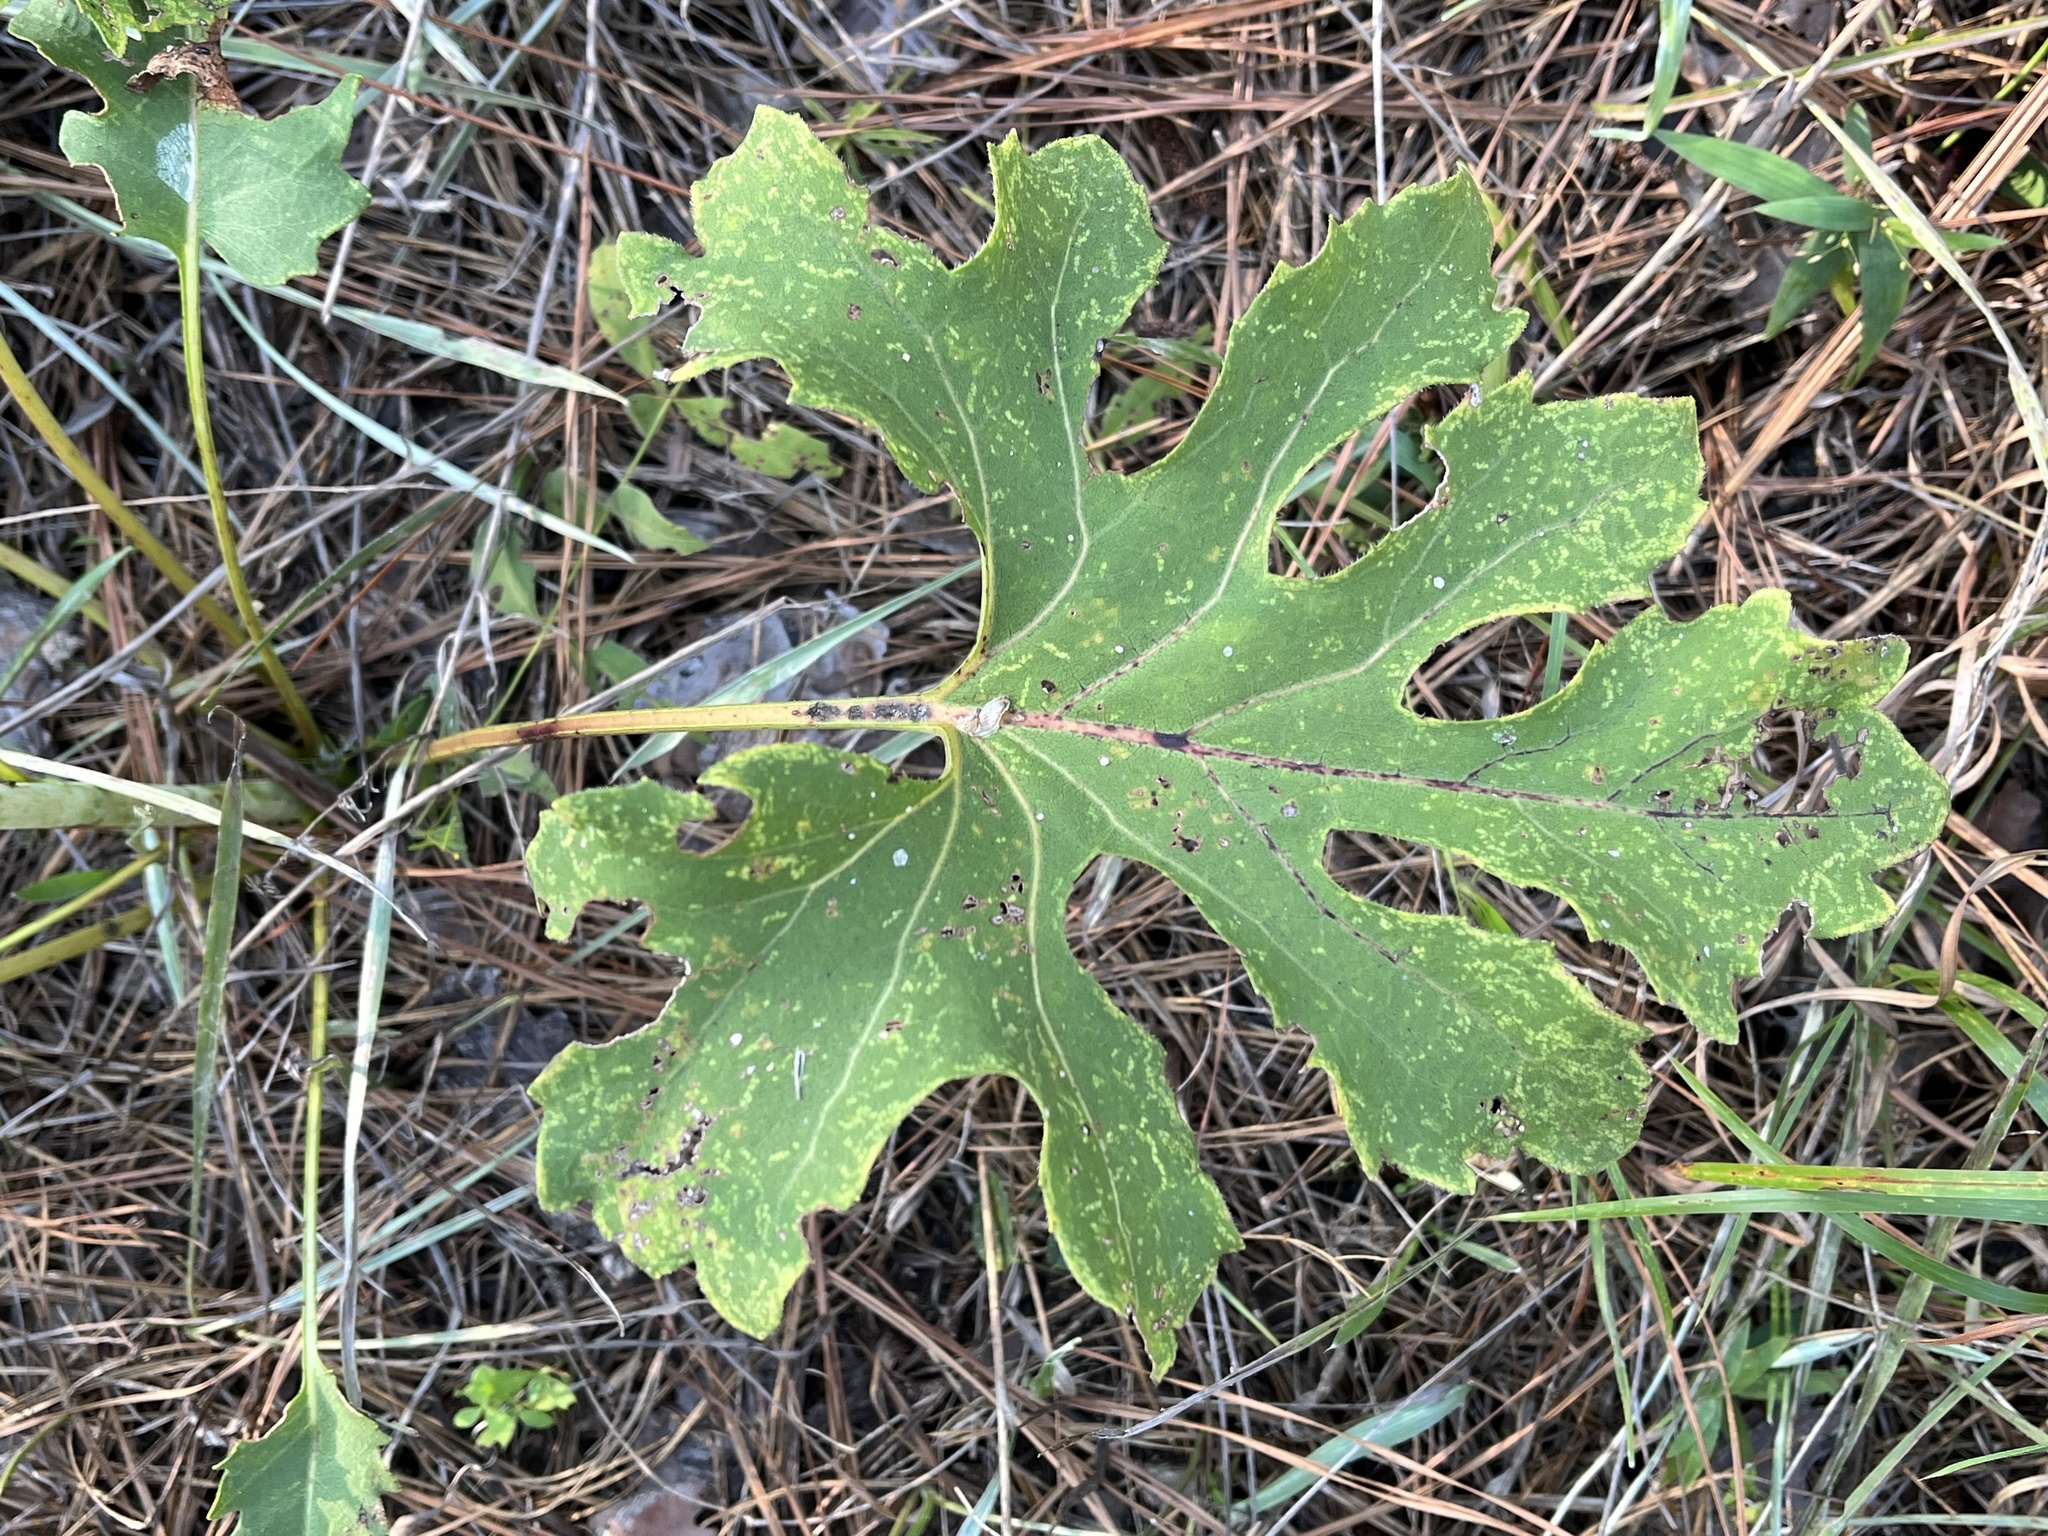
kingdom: Plantae
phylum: Tracheophyta
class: Magnoliopsida
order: Asterales
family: Asteraceae
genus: Silphium
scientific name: Silphium compositum
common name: Lesser basal-leaf rosinweed
